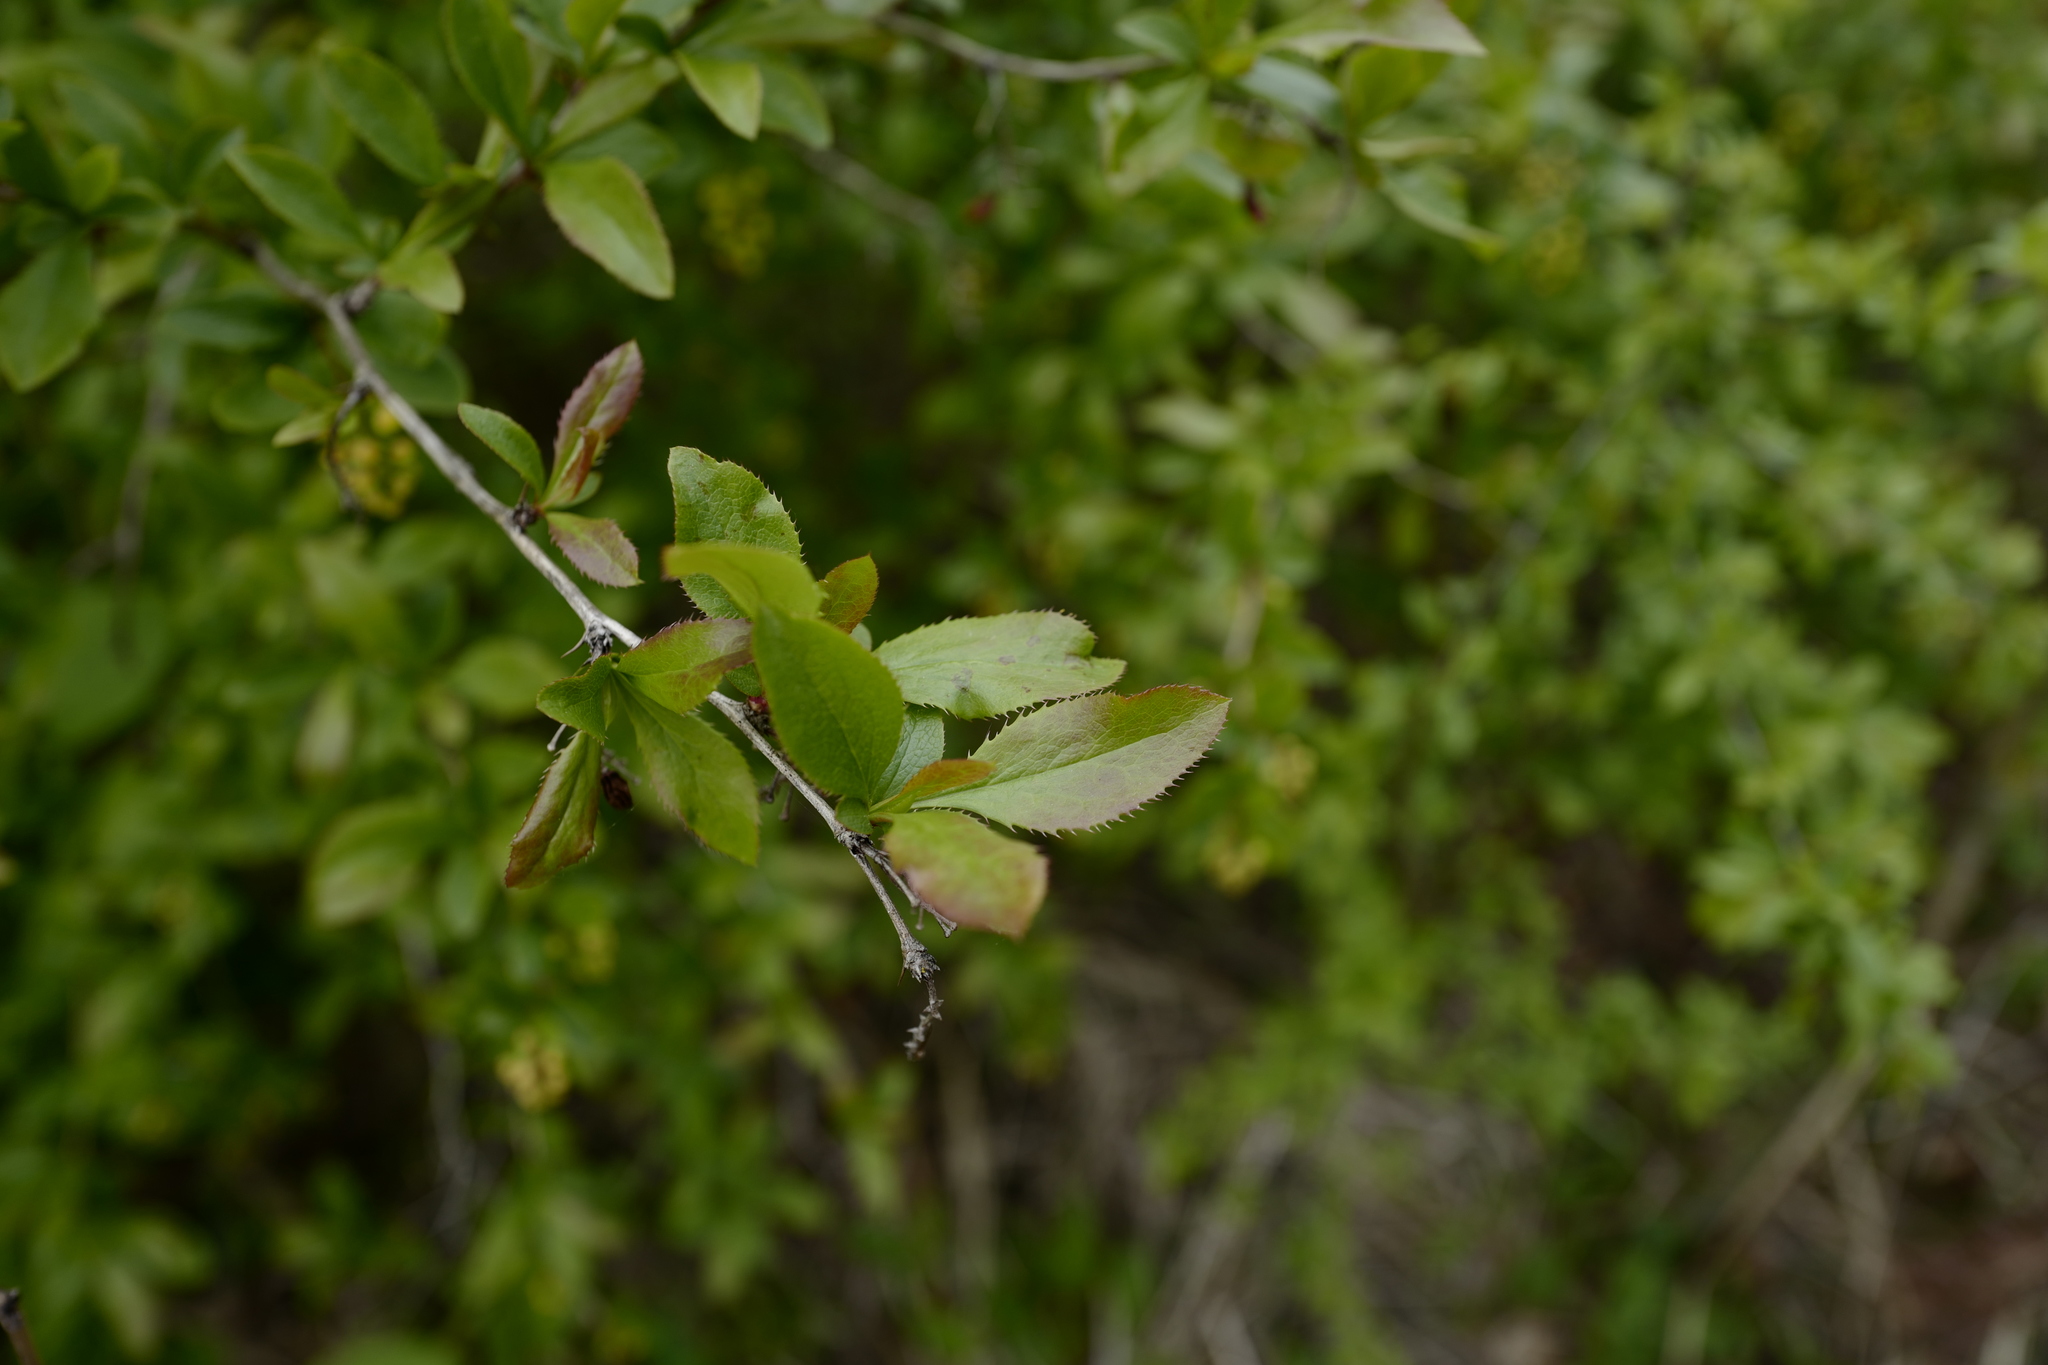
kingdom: Plantae
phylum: Tracheophyta
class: Magnoliopsida
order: Ranunculales
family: Berberidaceae
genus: Berberis
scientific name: Berberis vulgaris
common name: Barberry
